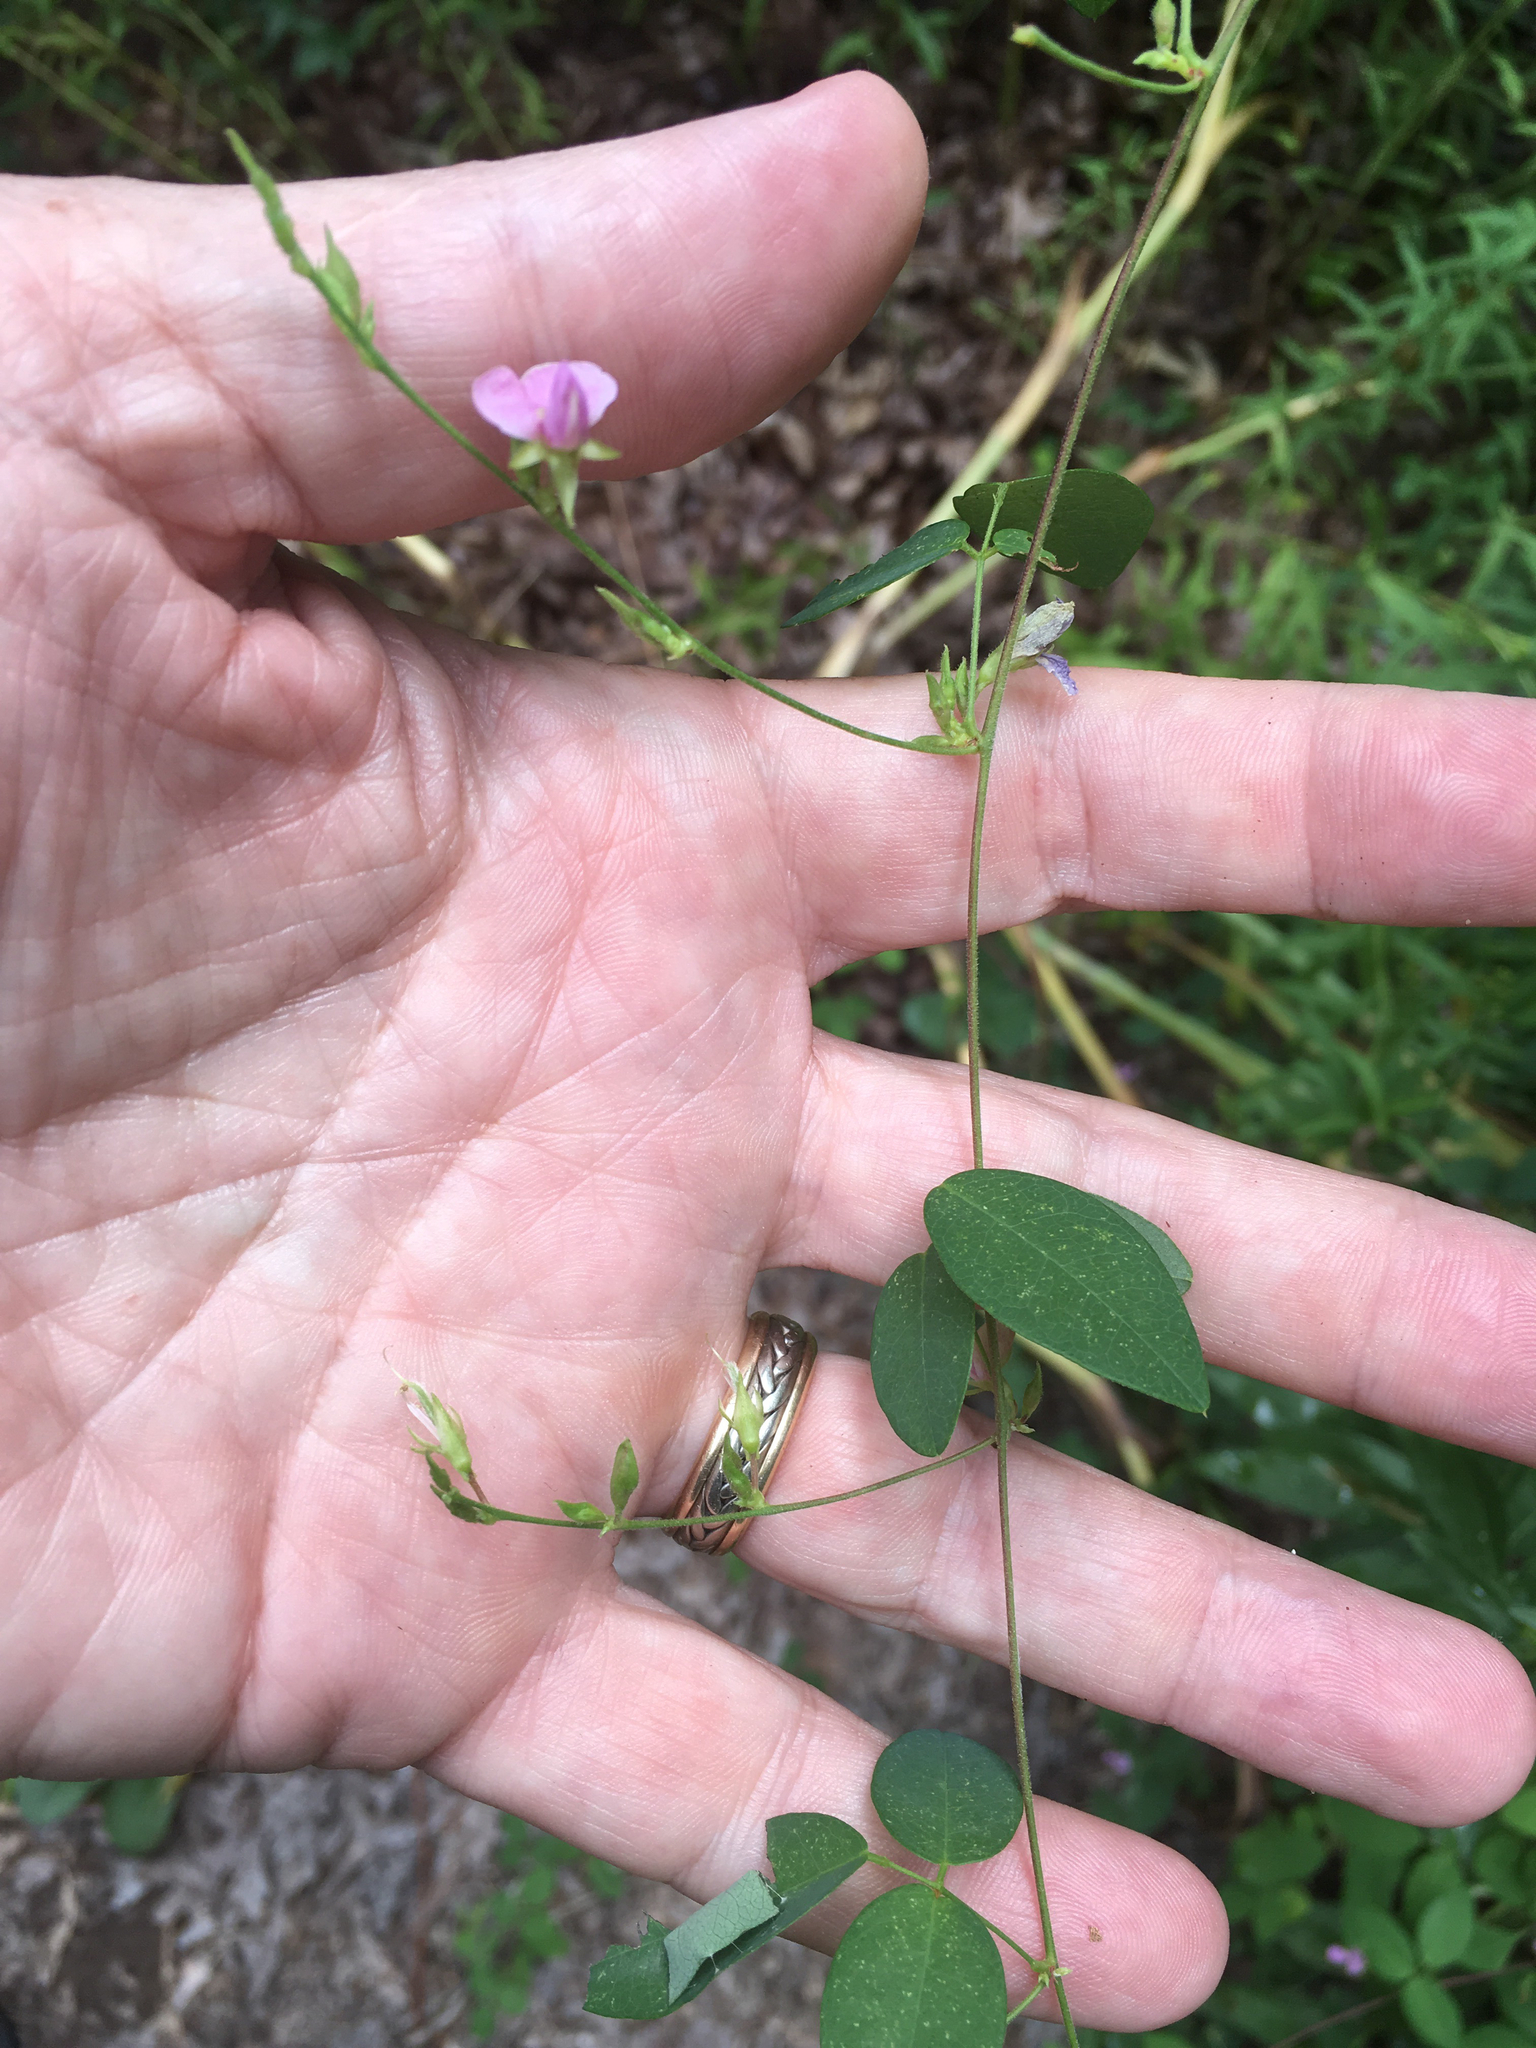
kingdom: Plantae
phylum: Tracheophyta
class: Magnoliopsida
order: Fabales
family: Fabaceae
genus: Galactia
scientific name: Galactia regularis
